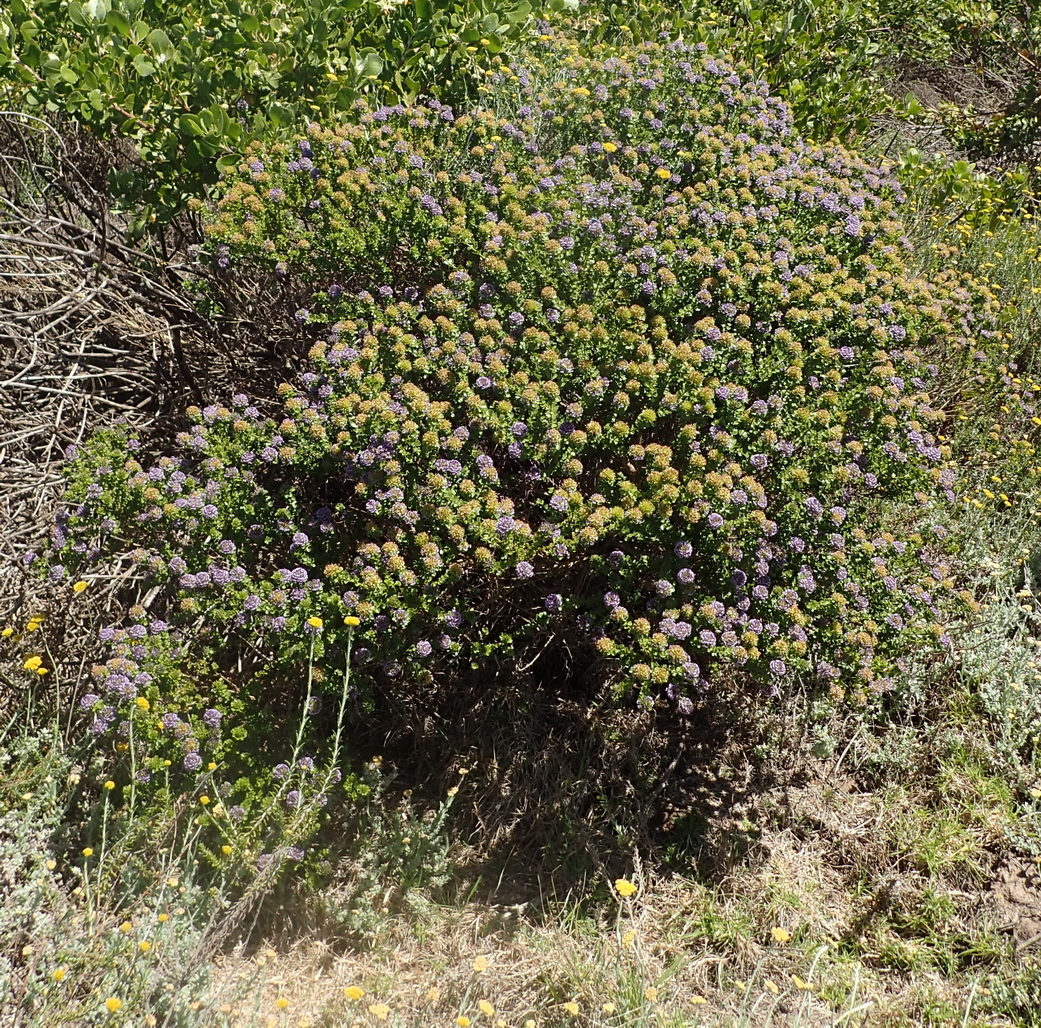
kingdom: Plantae
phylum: Tracheophyta
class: Magnoliopsida
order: Fabales
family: Fabaceae
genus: Psoralea
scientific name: Psoralea acuminata
